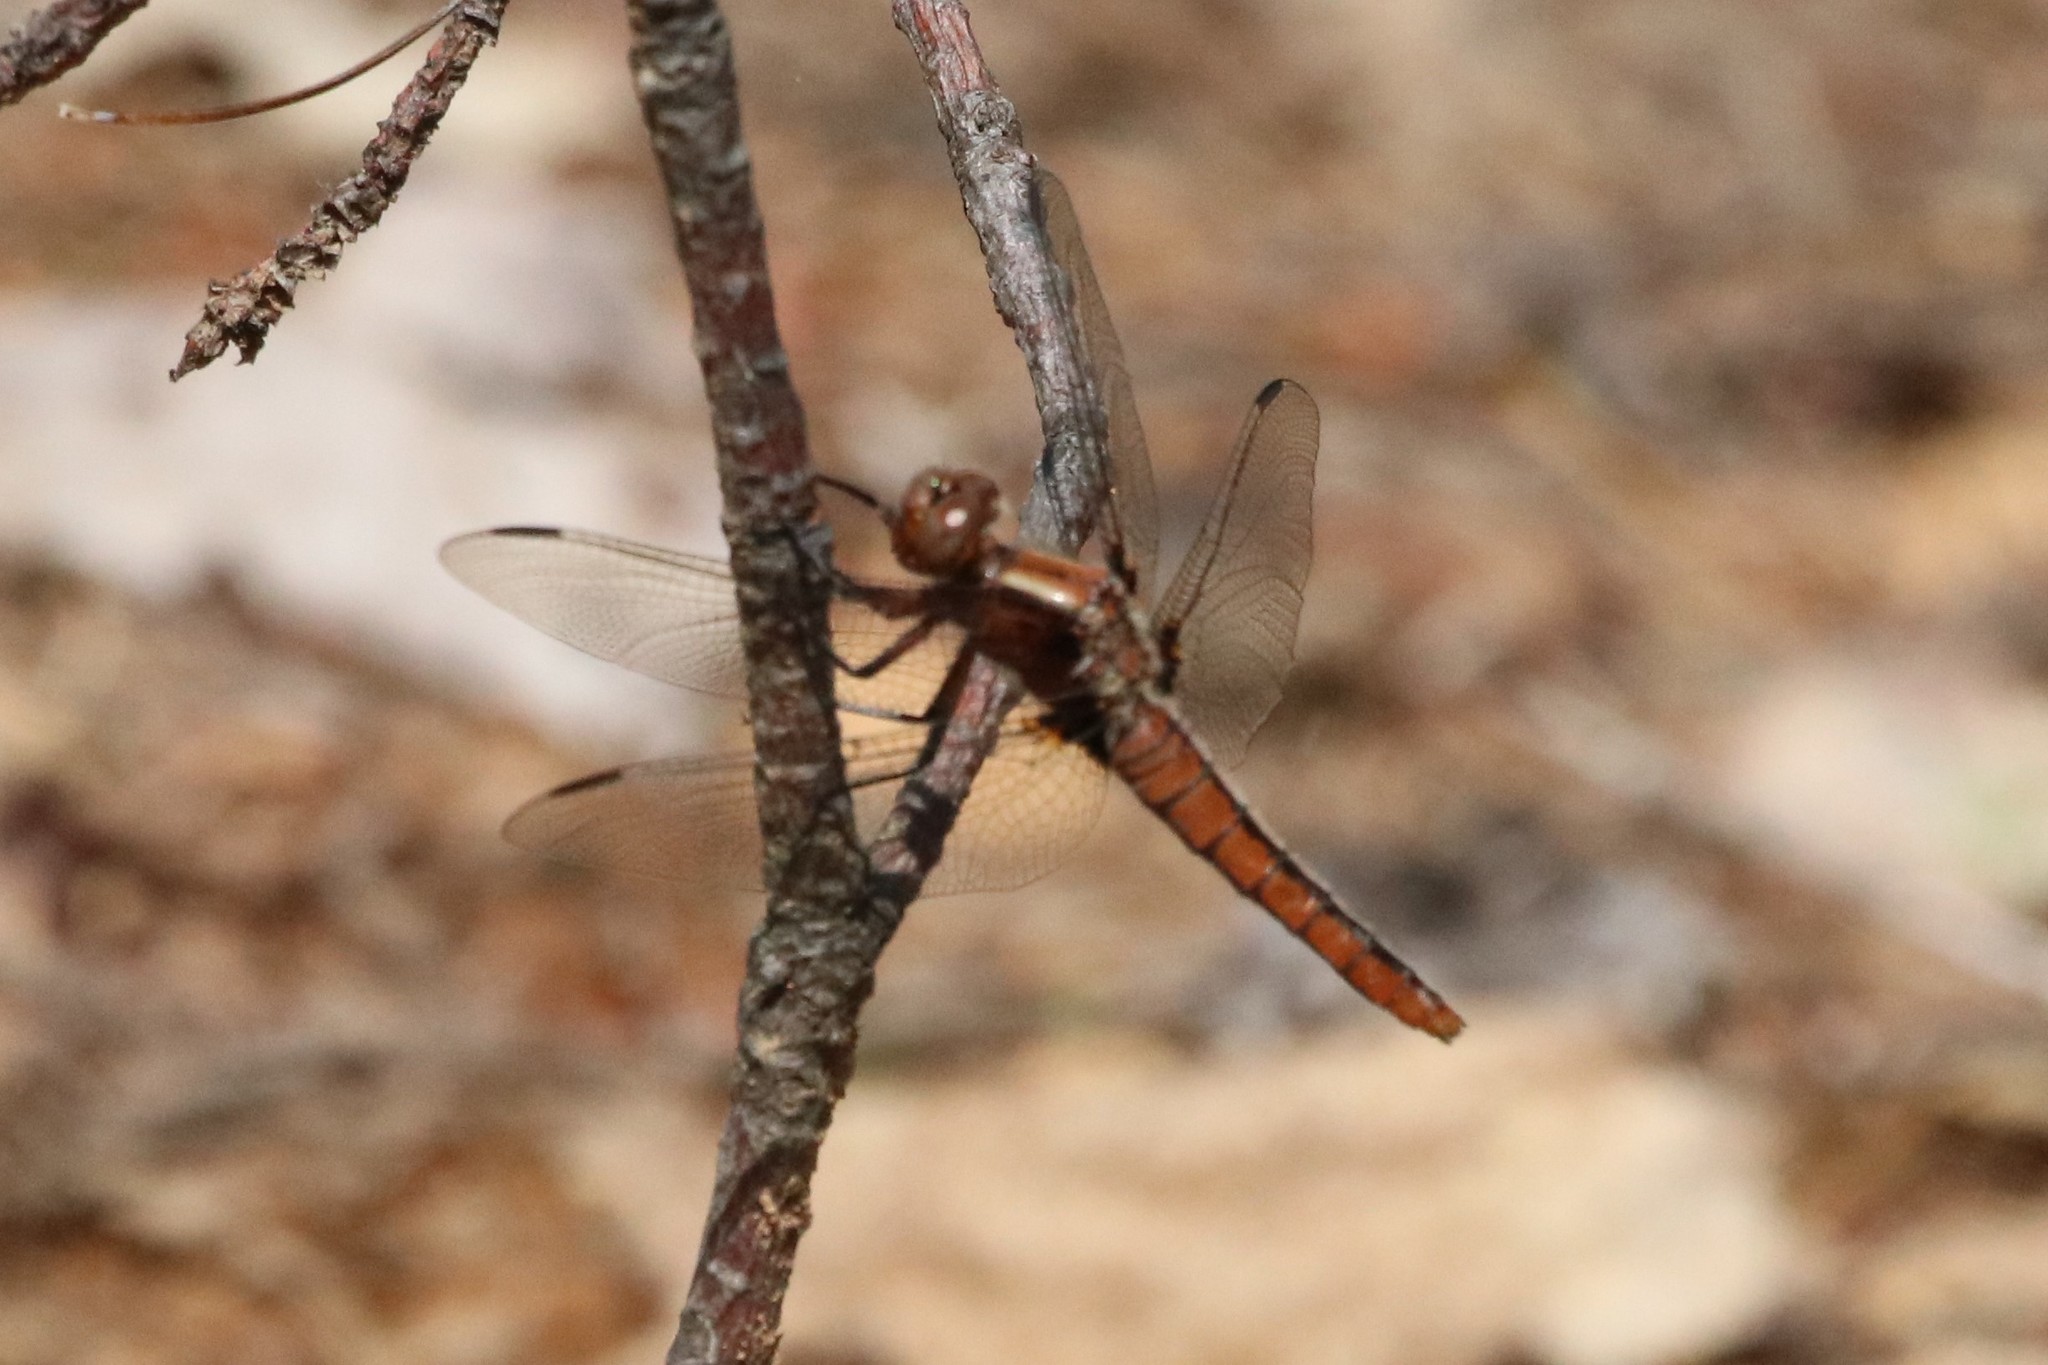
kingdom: Animalia
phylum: Arthropoda
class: Insecta
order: Odonata
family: Libellulidae
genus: Ladona
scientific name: Ladona julia
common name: Chalk-fronted corporal
